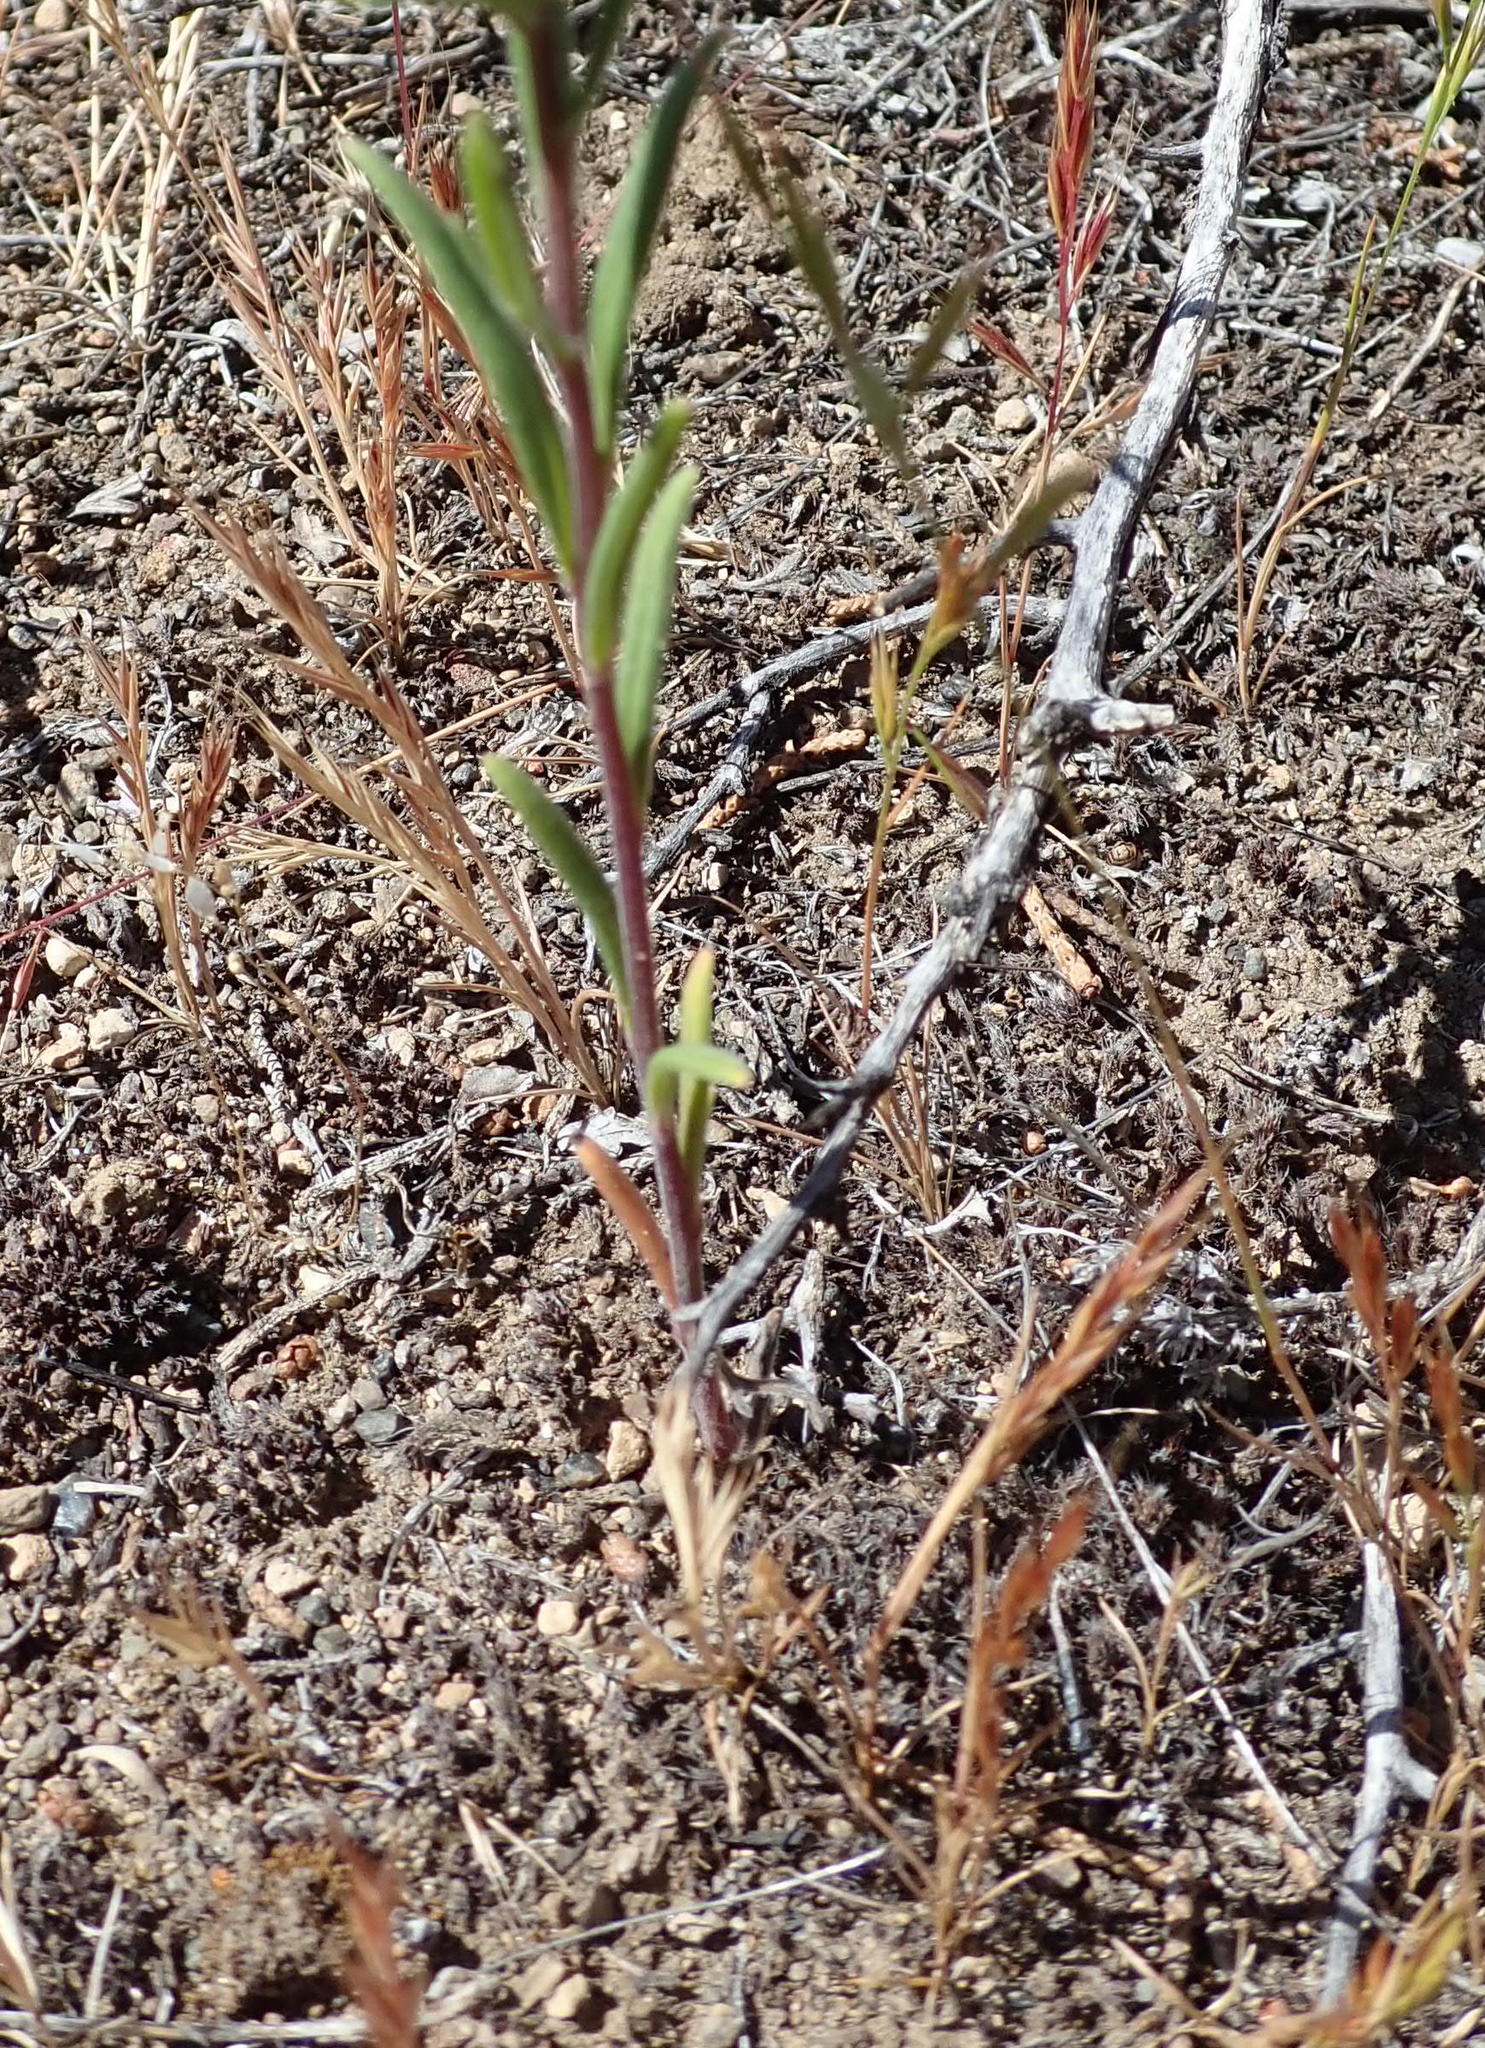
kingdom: Plantae
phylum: Tracheophyta
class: Magnoliopsida
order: Boraginales
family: Hydrophyllaceae
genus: Phacelia
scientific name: Phacelia linearis
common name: Linear-leaved phacelia
